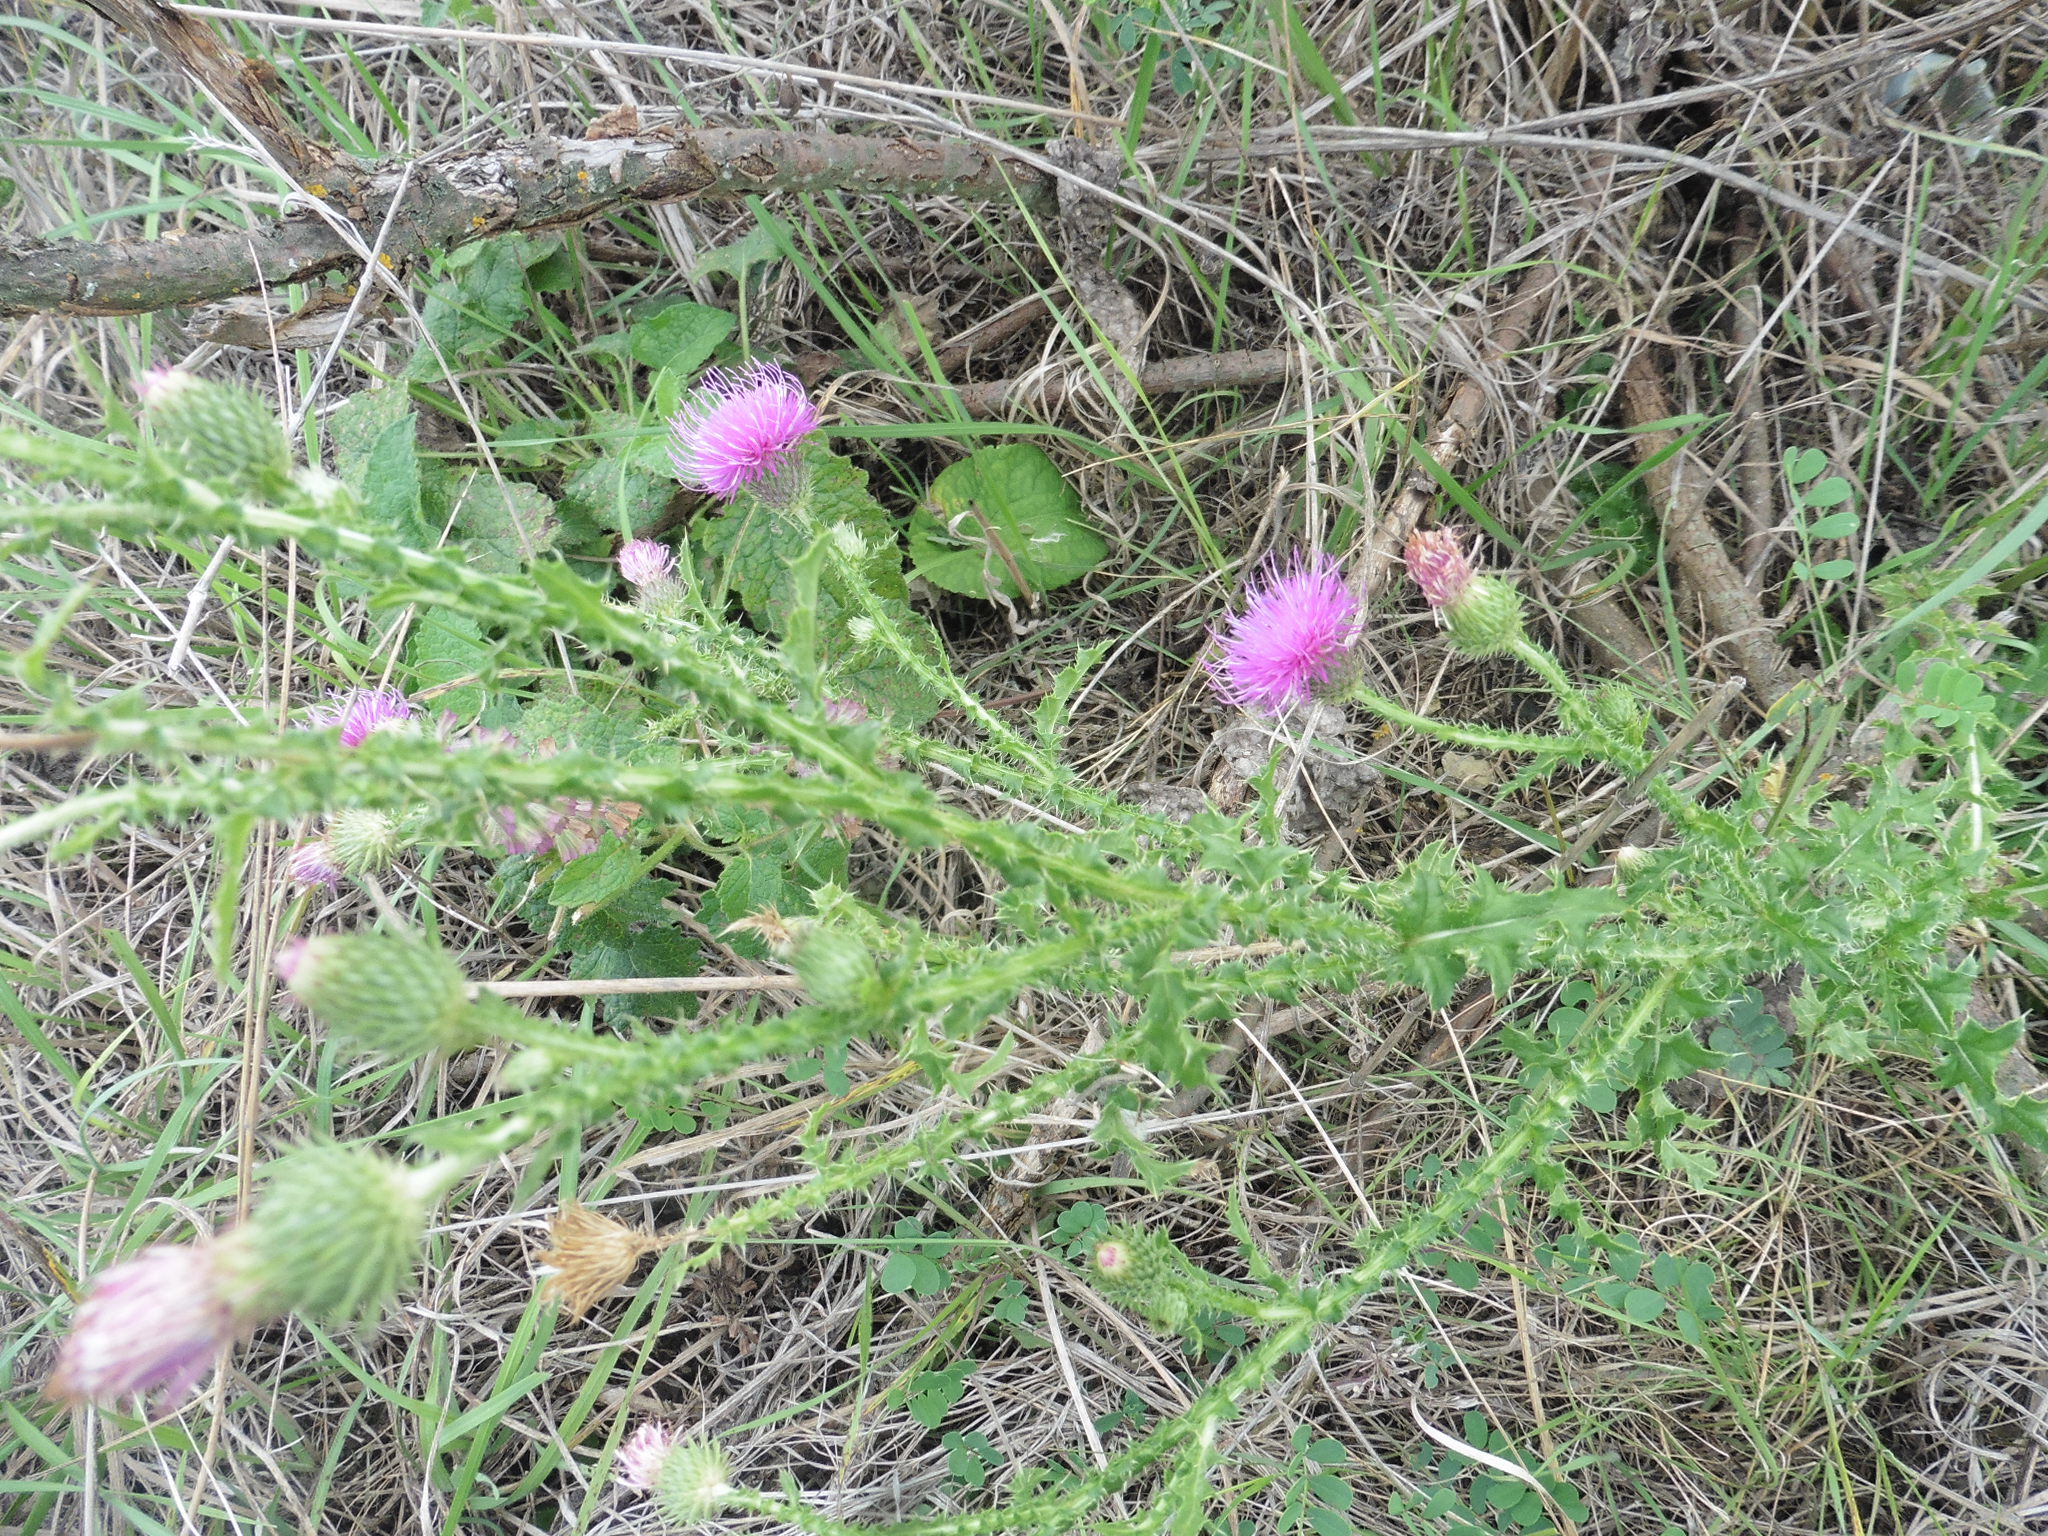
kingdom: Plantae
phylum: Tracheophyta
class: Magnoliopsida
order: Asterales
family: Asteraceae
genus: Carduus
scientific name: Carduus acanthoides
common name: Plumeless thistle
